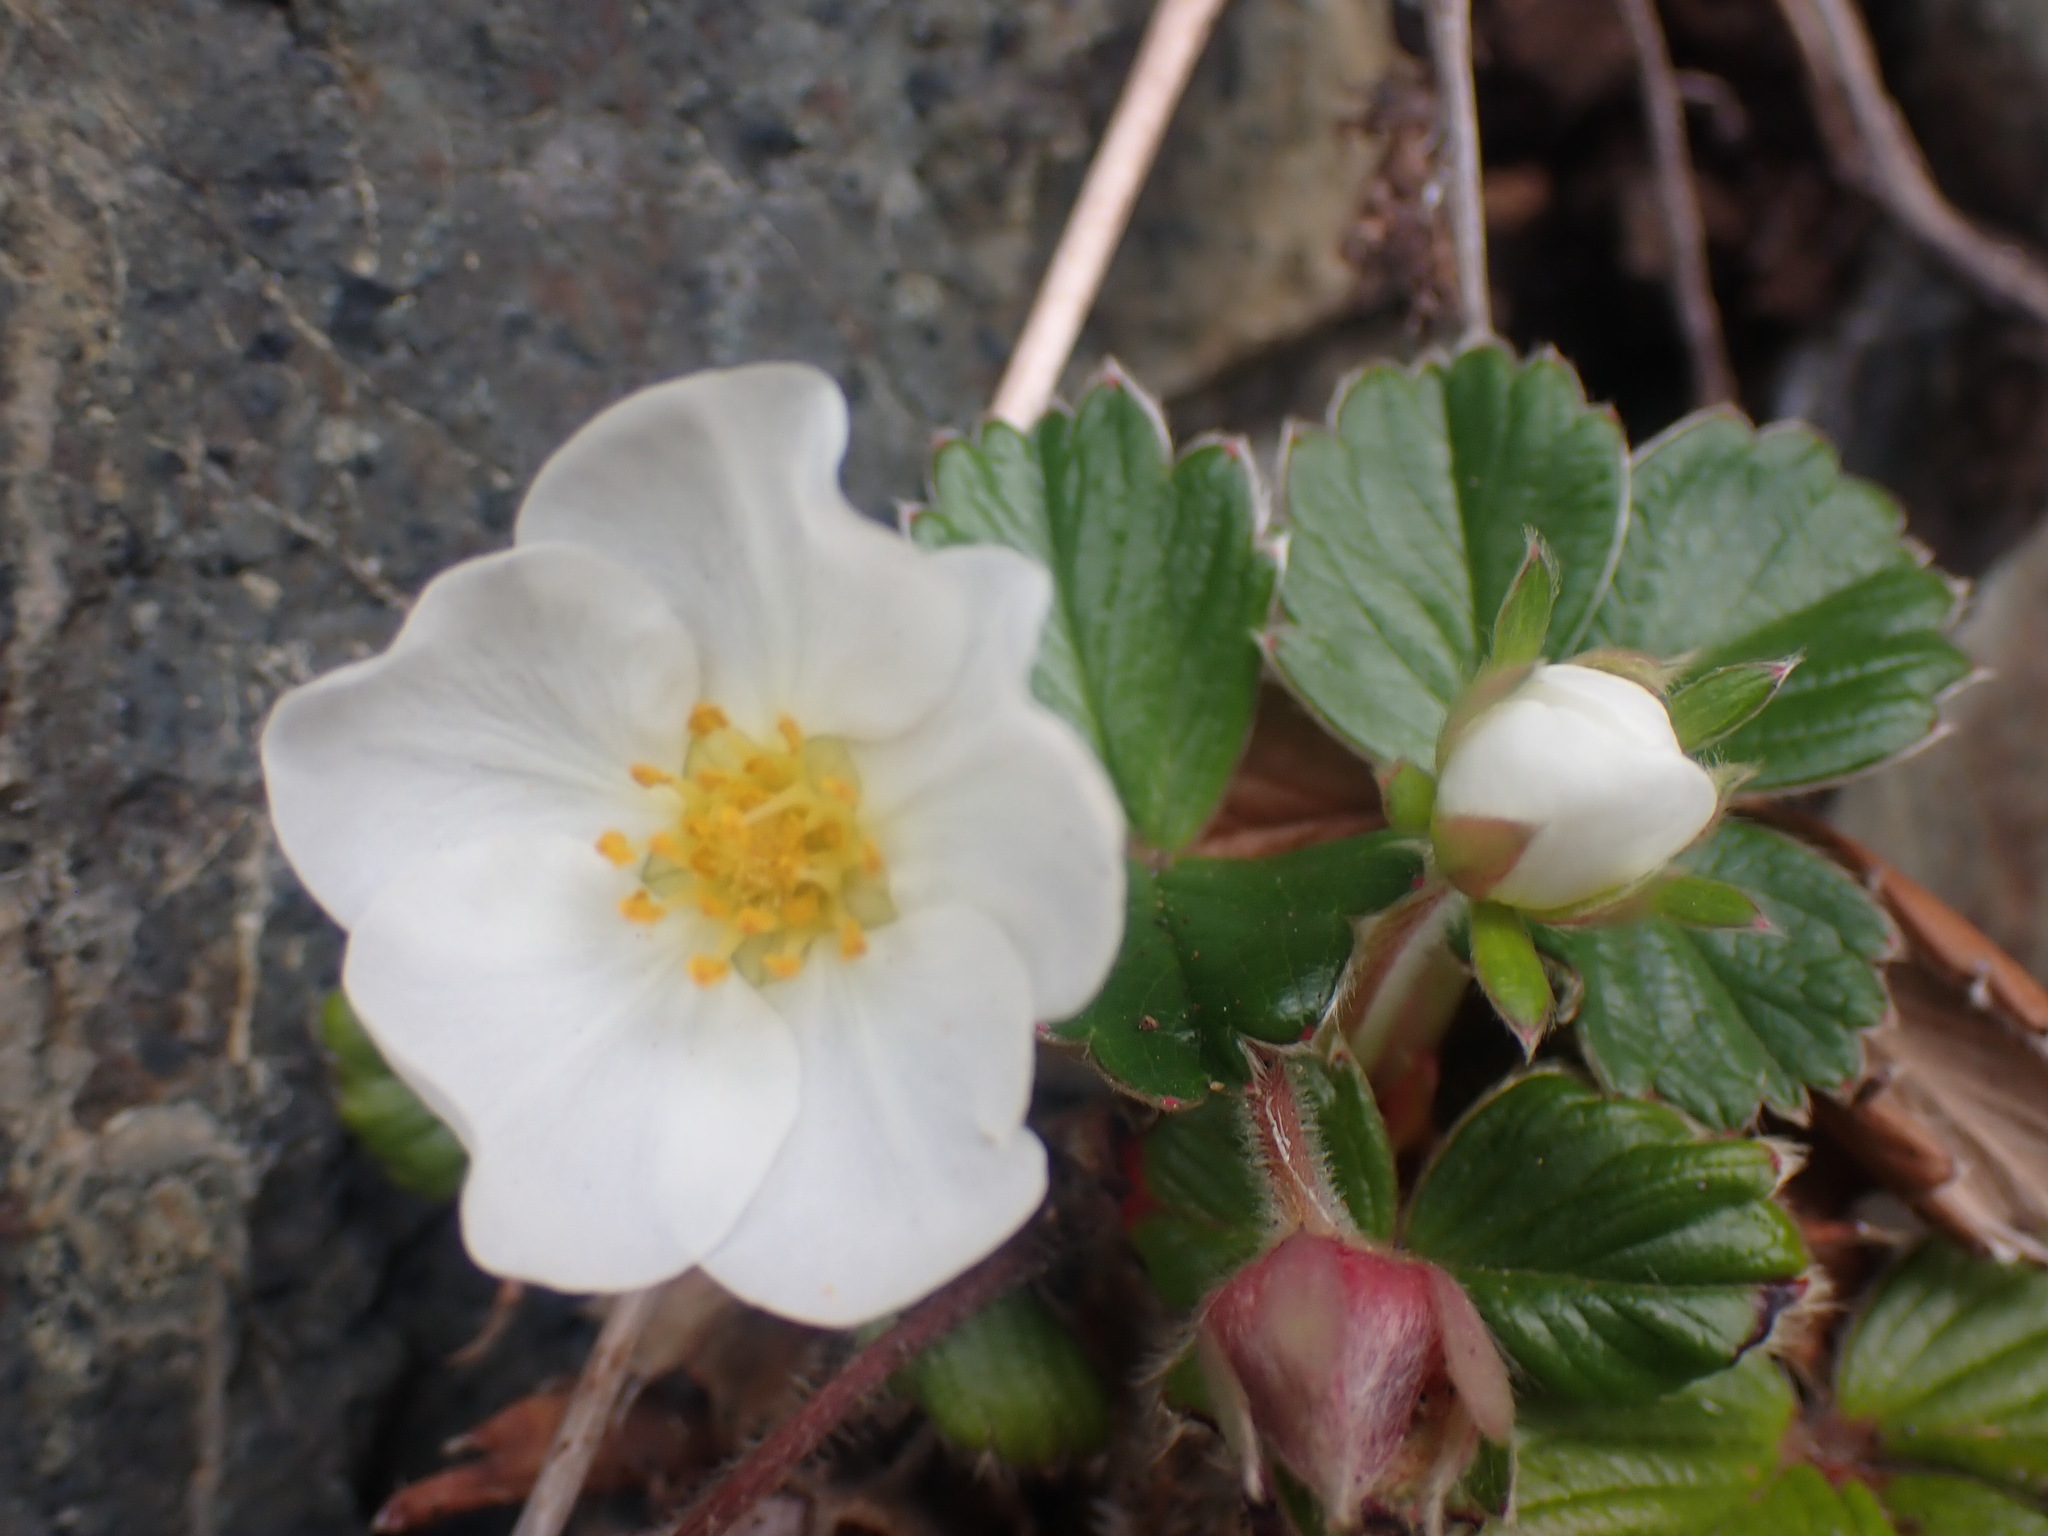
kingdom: Plantae
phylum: Tracheophyta
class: Magnoliopsida
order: Rosales
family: Rosaceae
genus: Fragaria
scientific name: Fragaria chiloensis
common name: Beach strawberry
